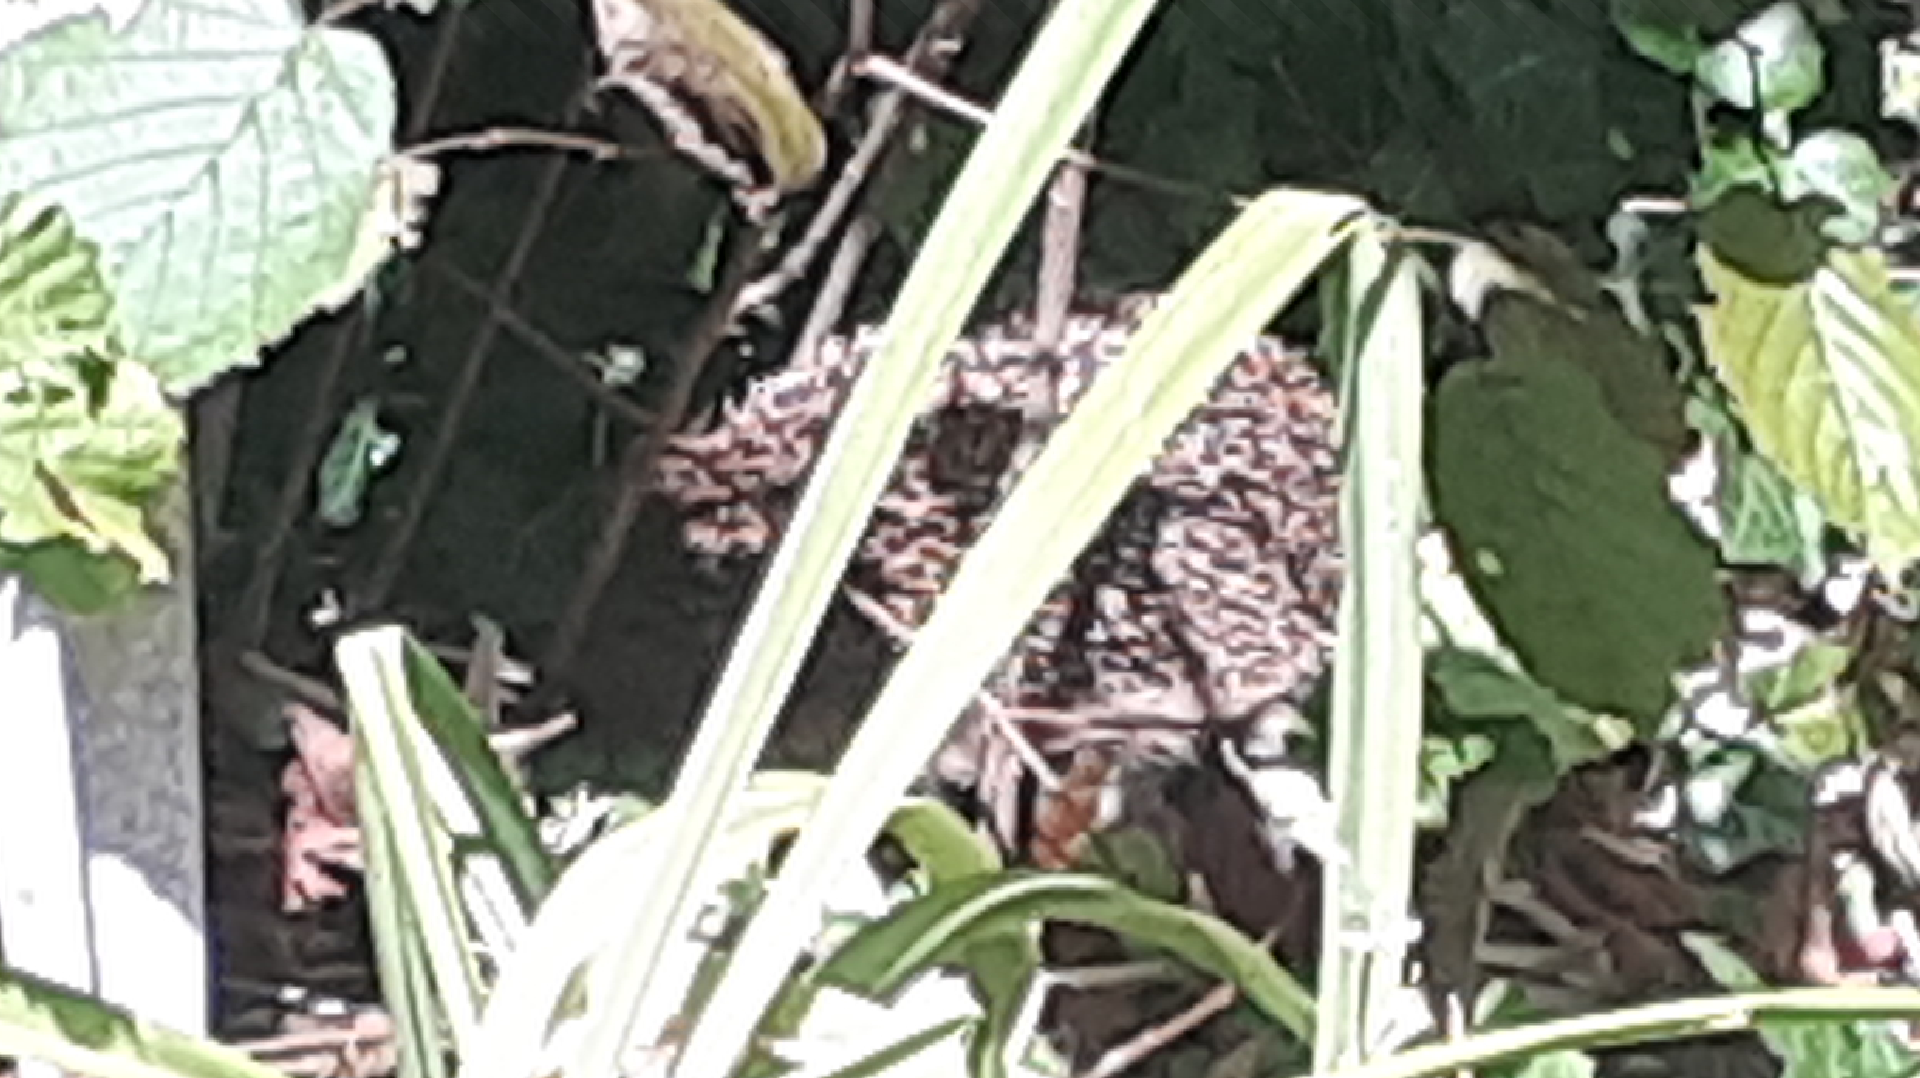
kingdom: Animalia
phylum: Chordata
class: Mammalia
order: Erinaceomorpha
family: Erinaceidae
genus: Erinaceus
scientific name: Erinaceus europaeus
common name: West european hedgehog
